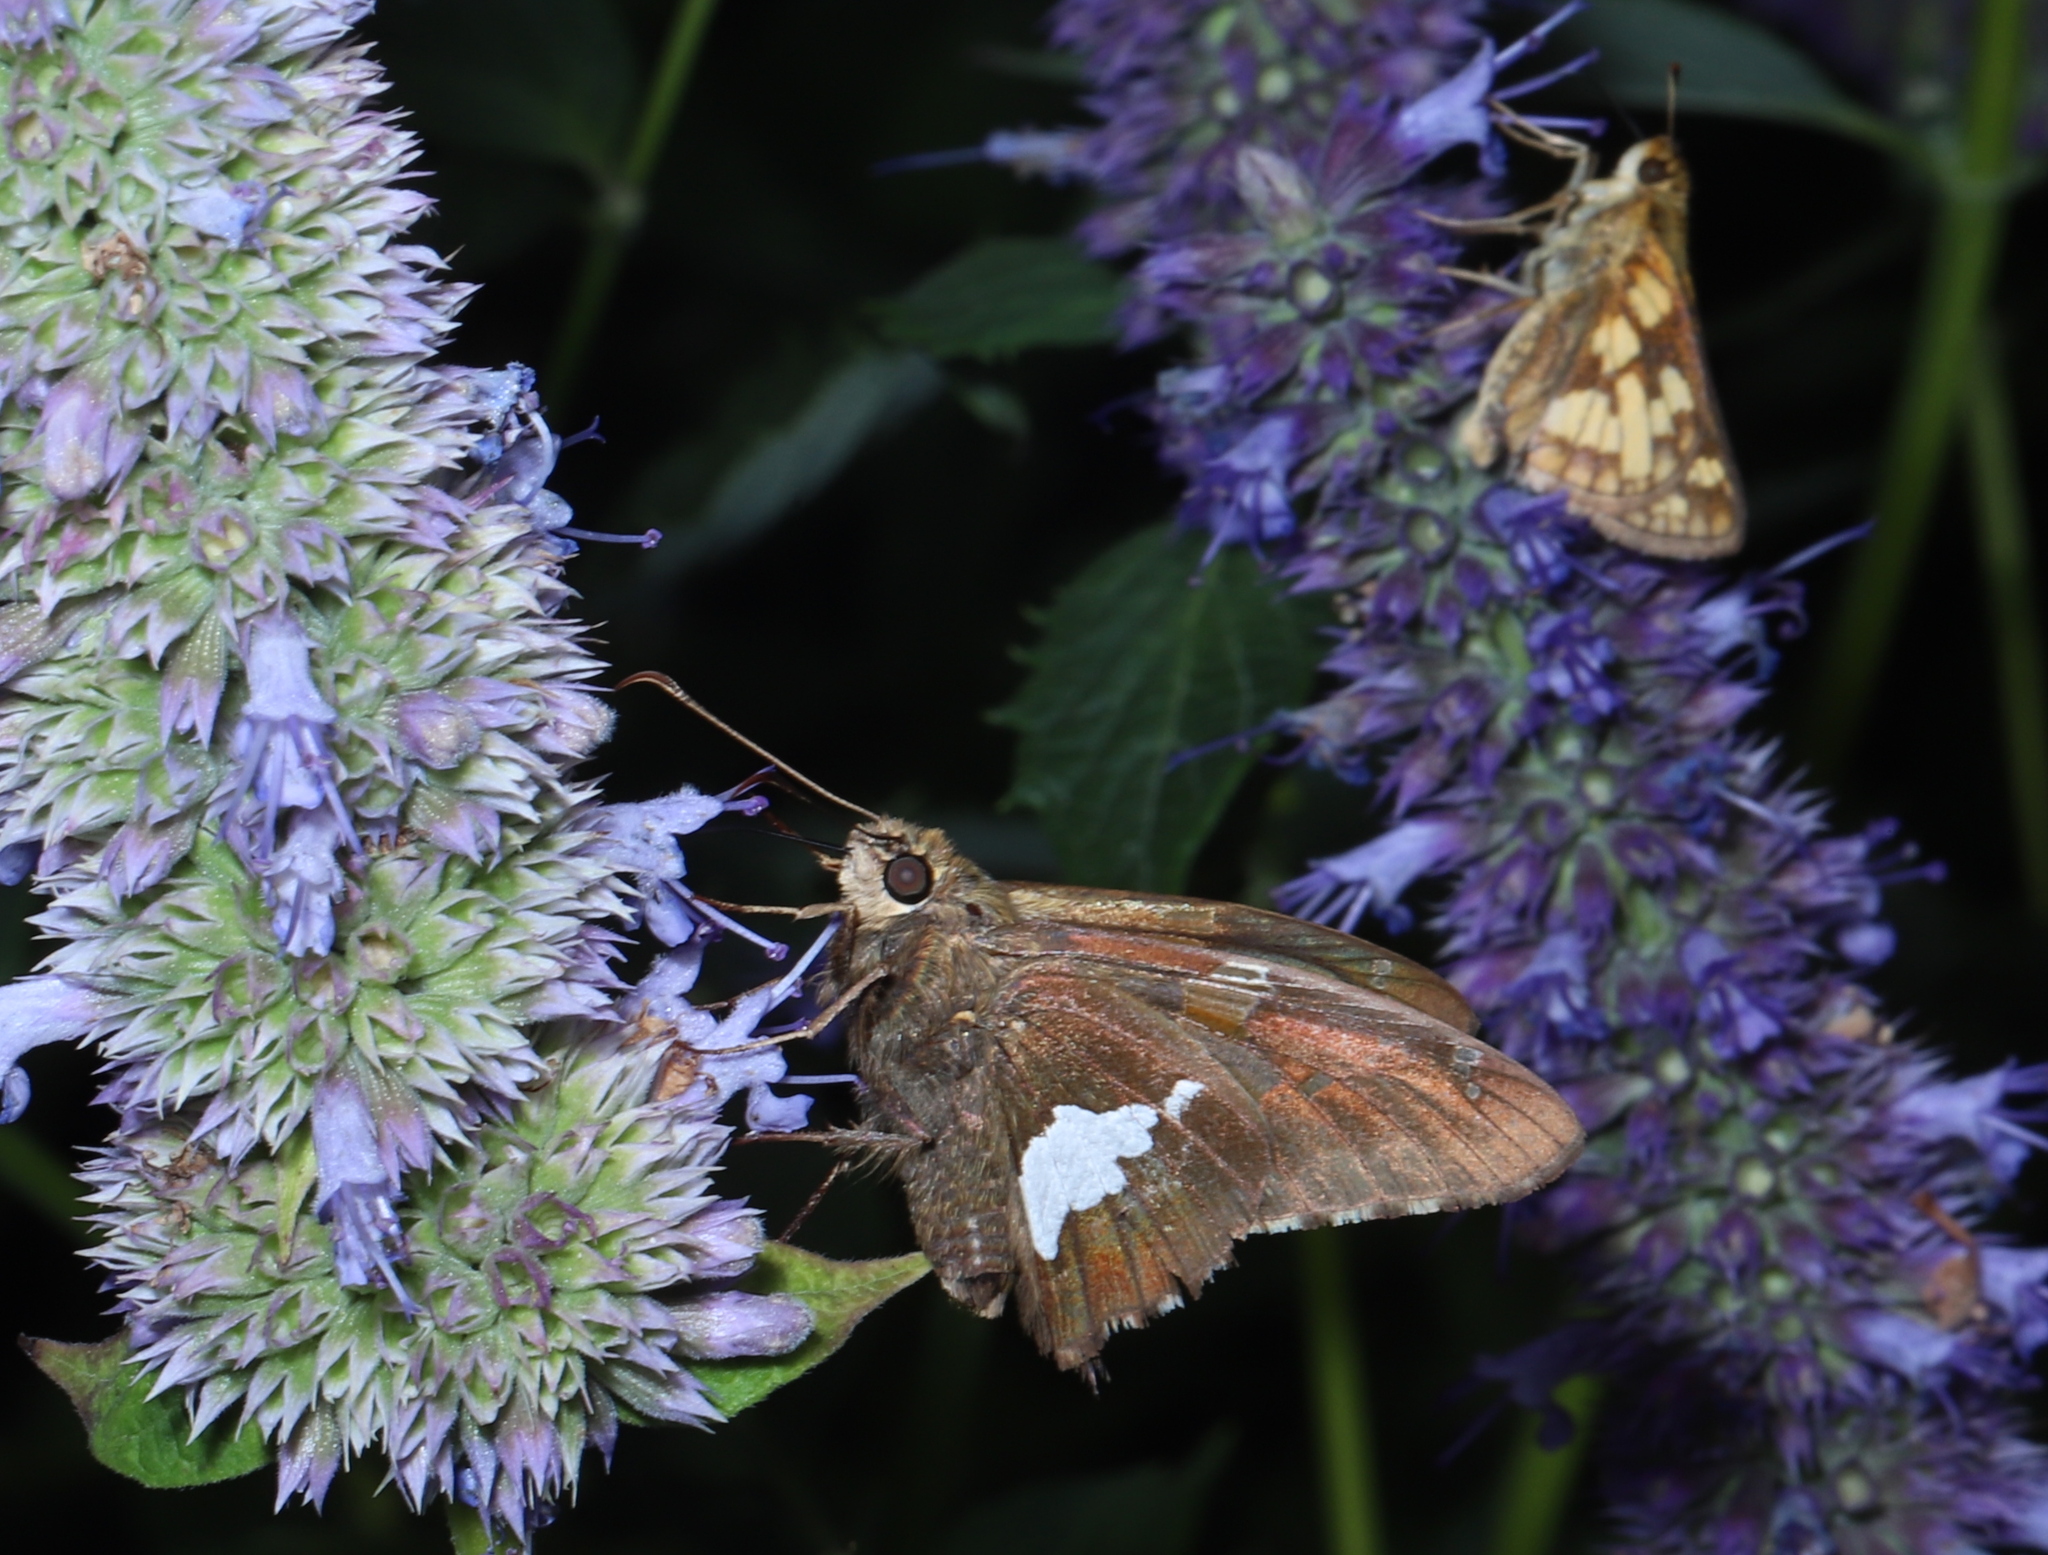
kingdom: Animalia
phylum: Arthropoda
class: Insecta
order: Lepidoptera
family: Hesperiidae
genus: Epargyreus
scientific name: Epargyreus clarus
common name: Silver-spotted skipper
